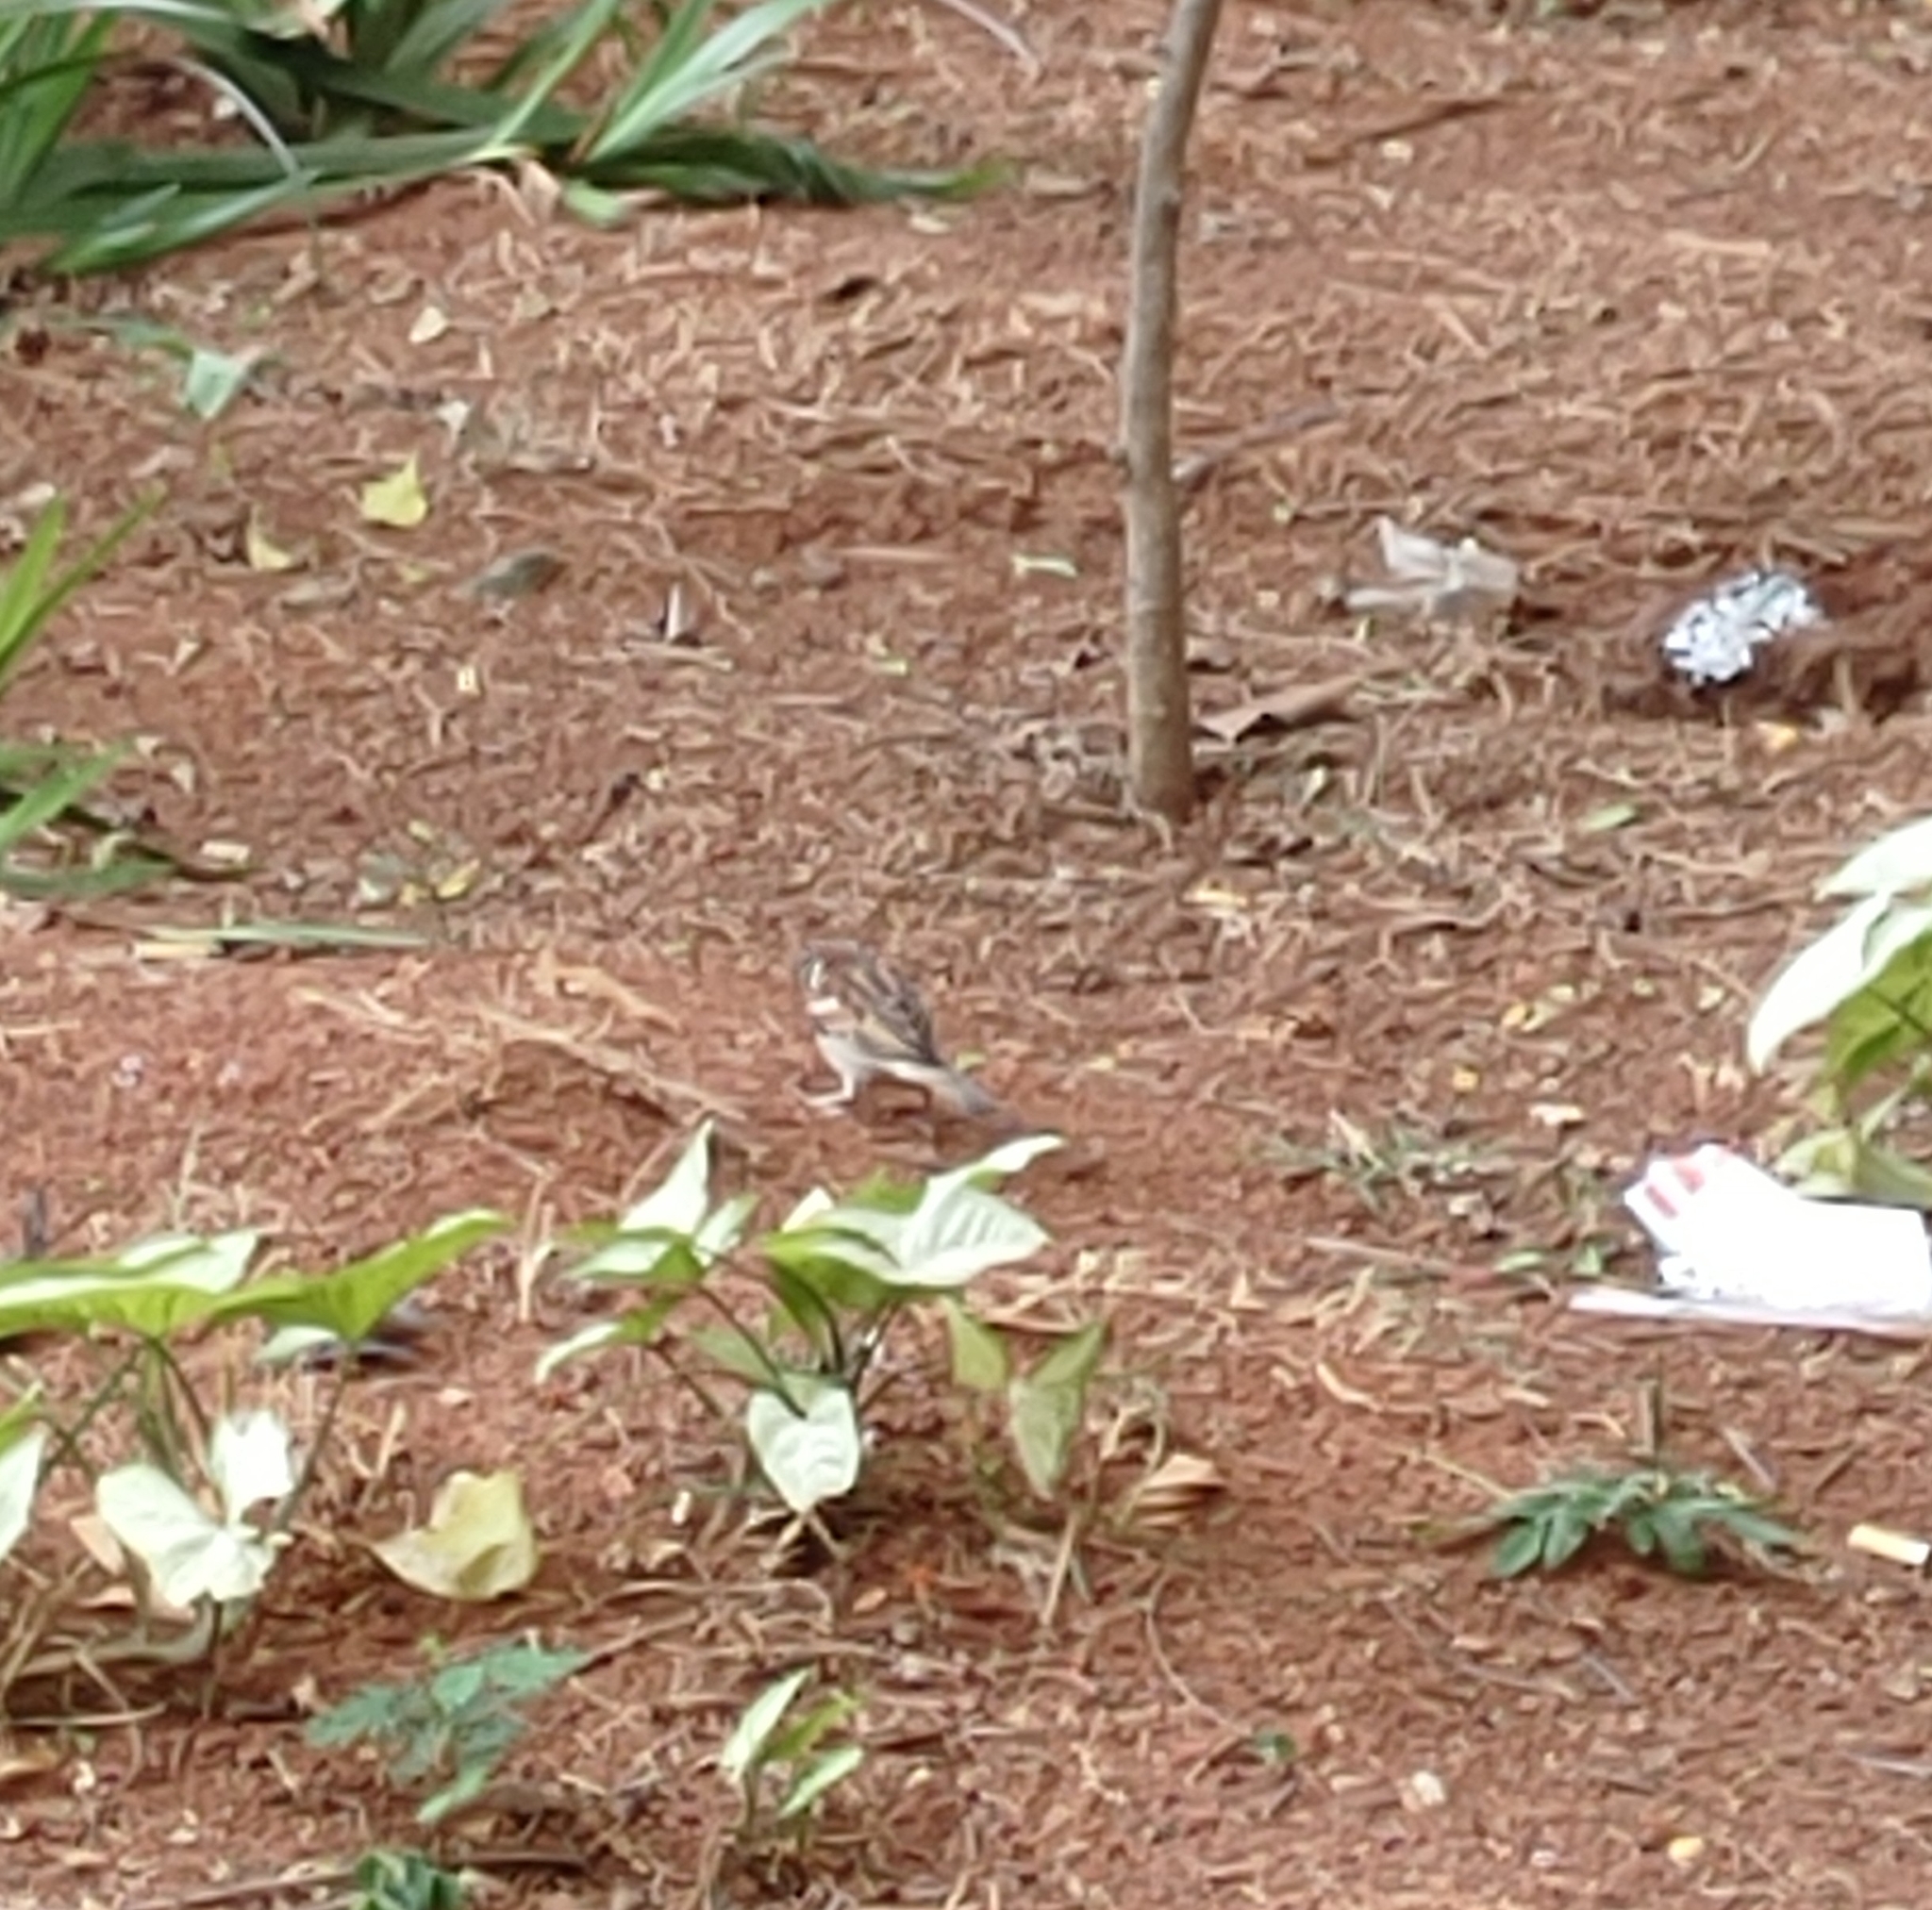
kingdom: Animalia
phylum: Chordata
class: Aves
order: Passeriformes
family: Passeridae
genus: Passer
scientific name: Passer domesticus
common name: House sparrow
